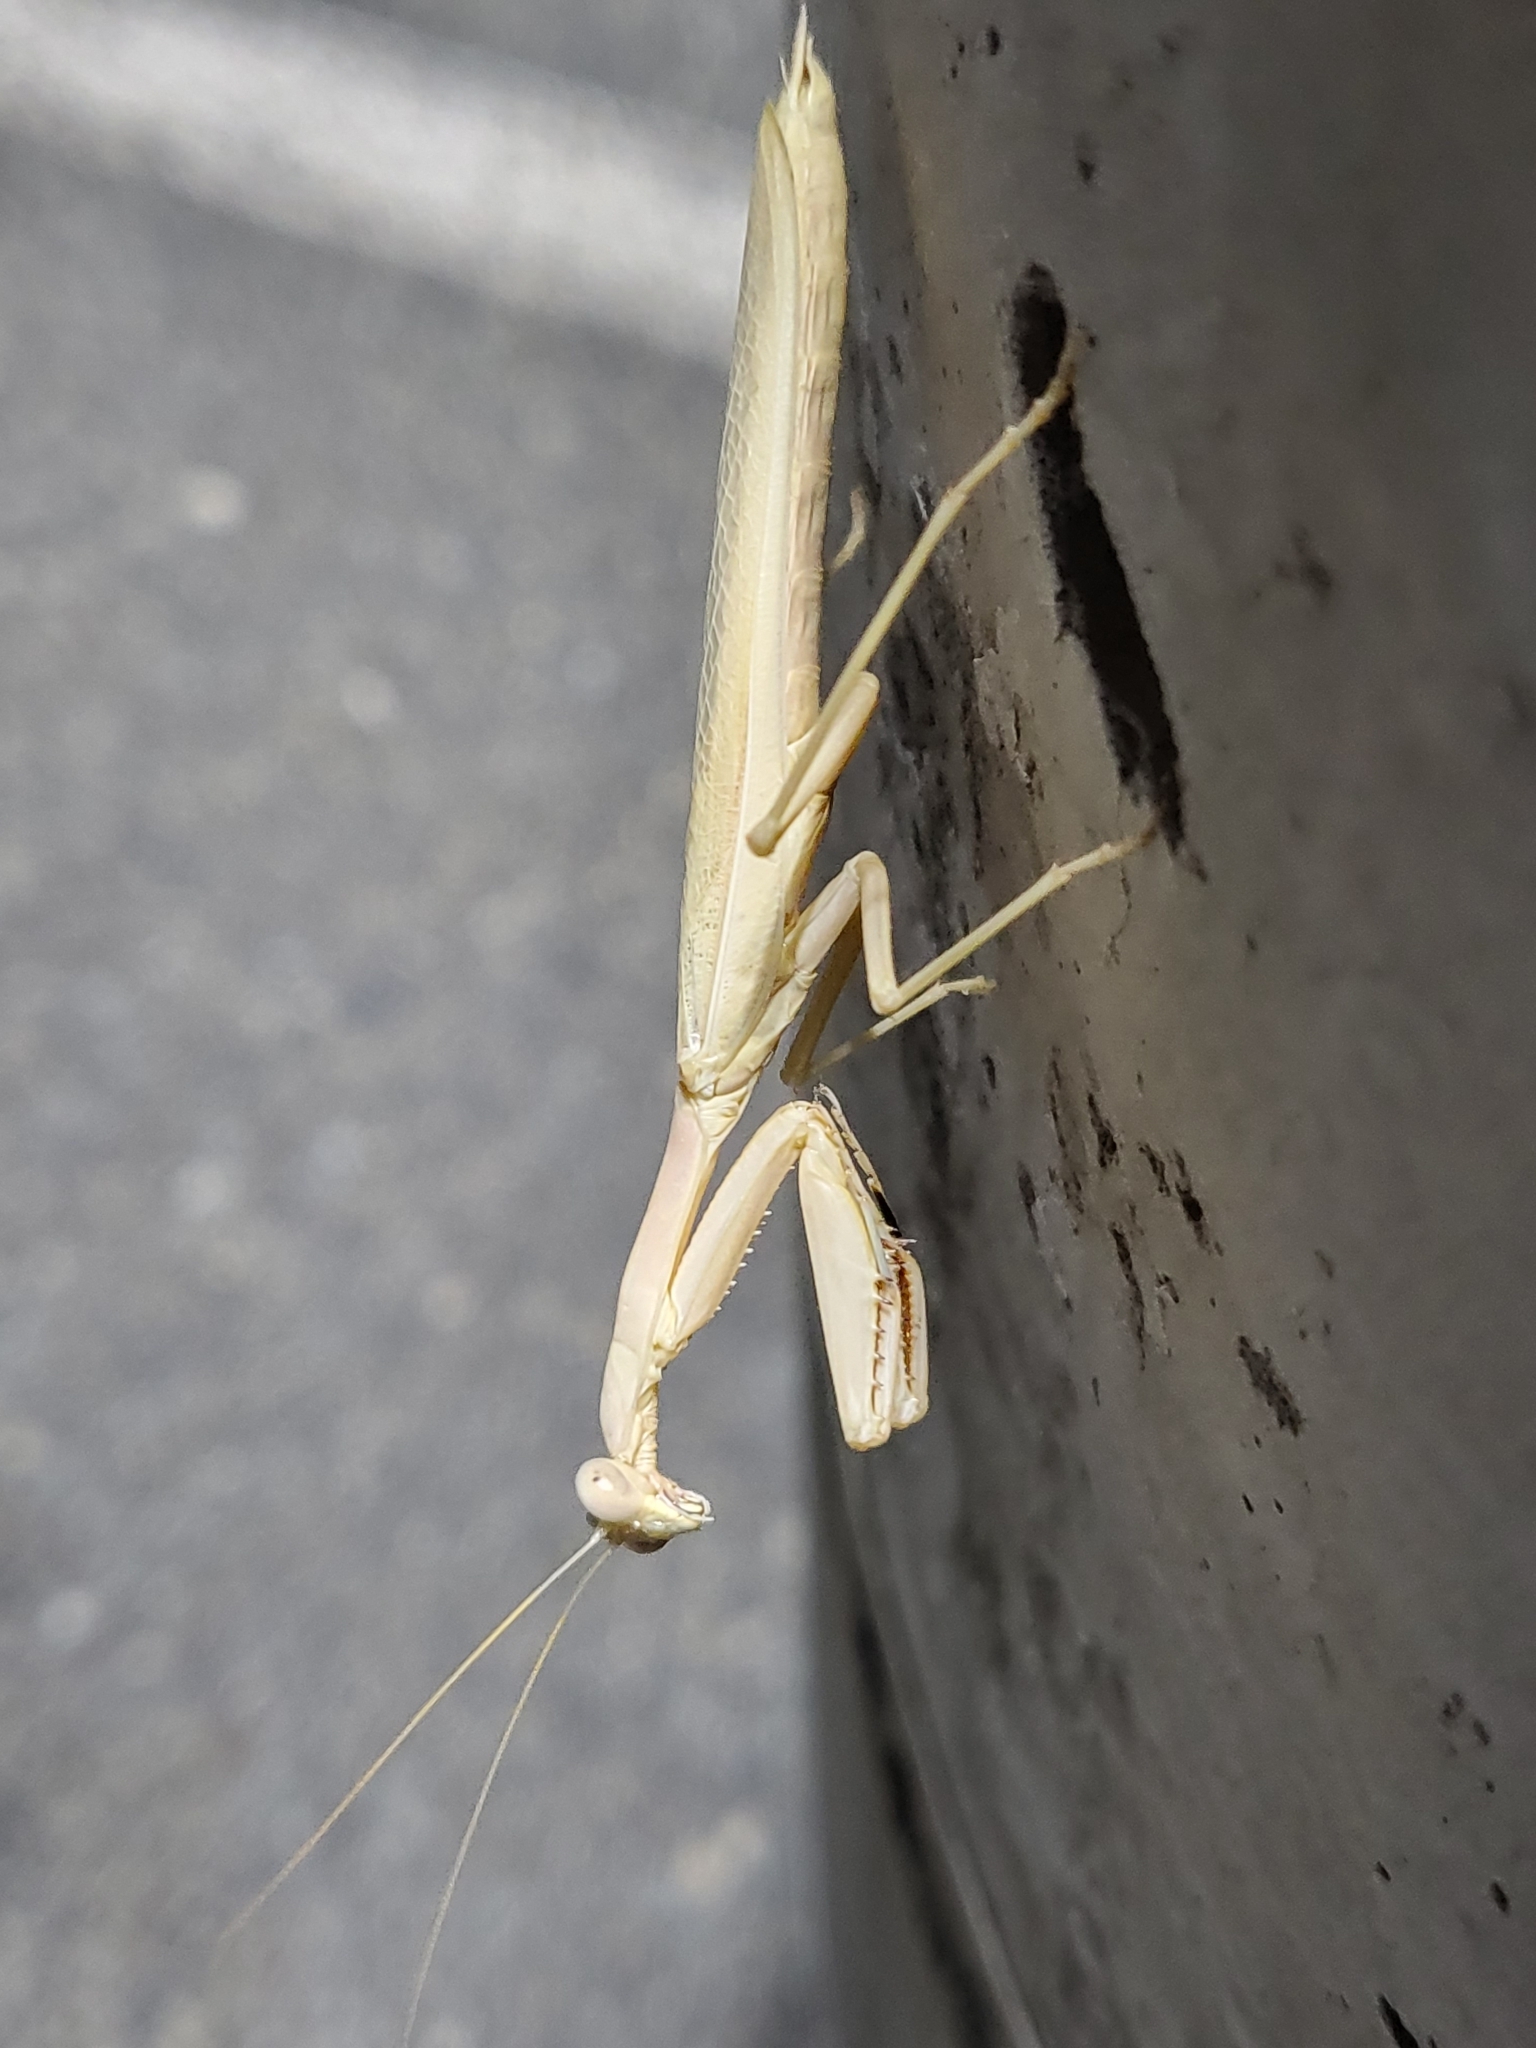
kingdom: Animalia
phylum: Arthropoda
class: Insecta
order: Mantodea
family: Eremiaphilidae
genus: Iris
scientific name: Iris oratoria
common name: Mediterranean mantis
